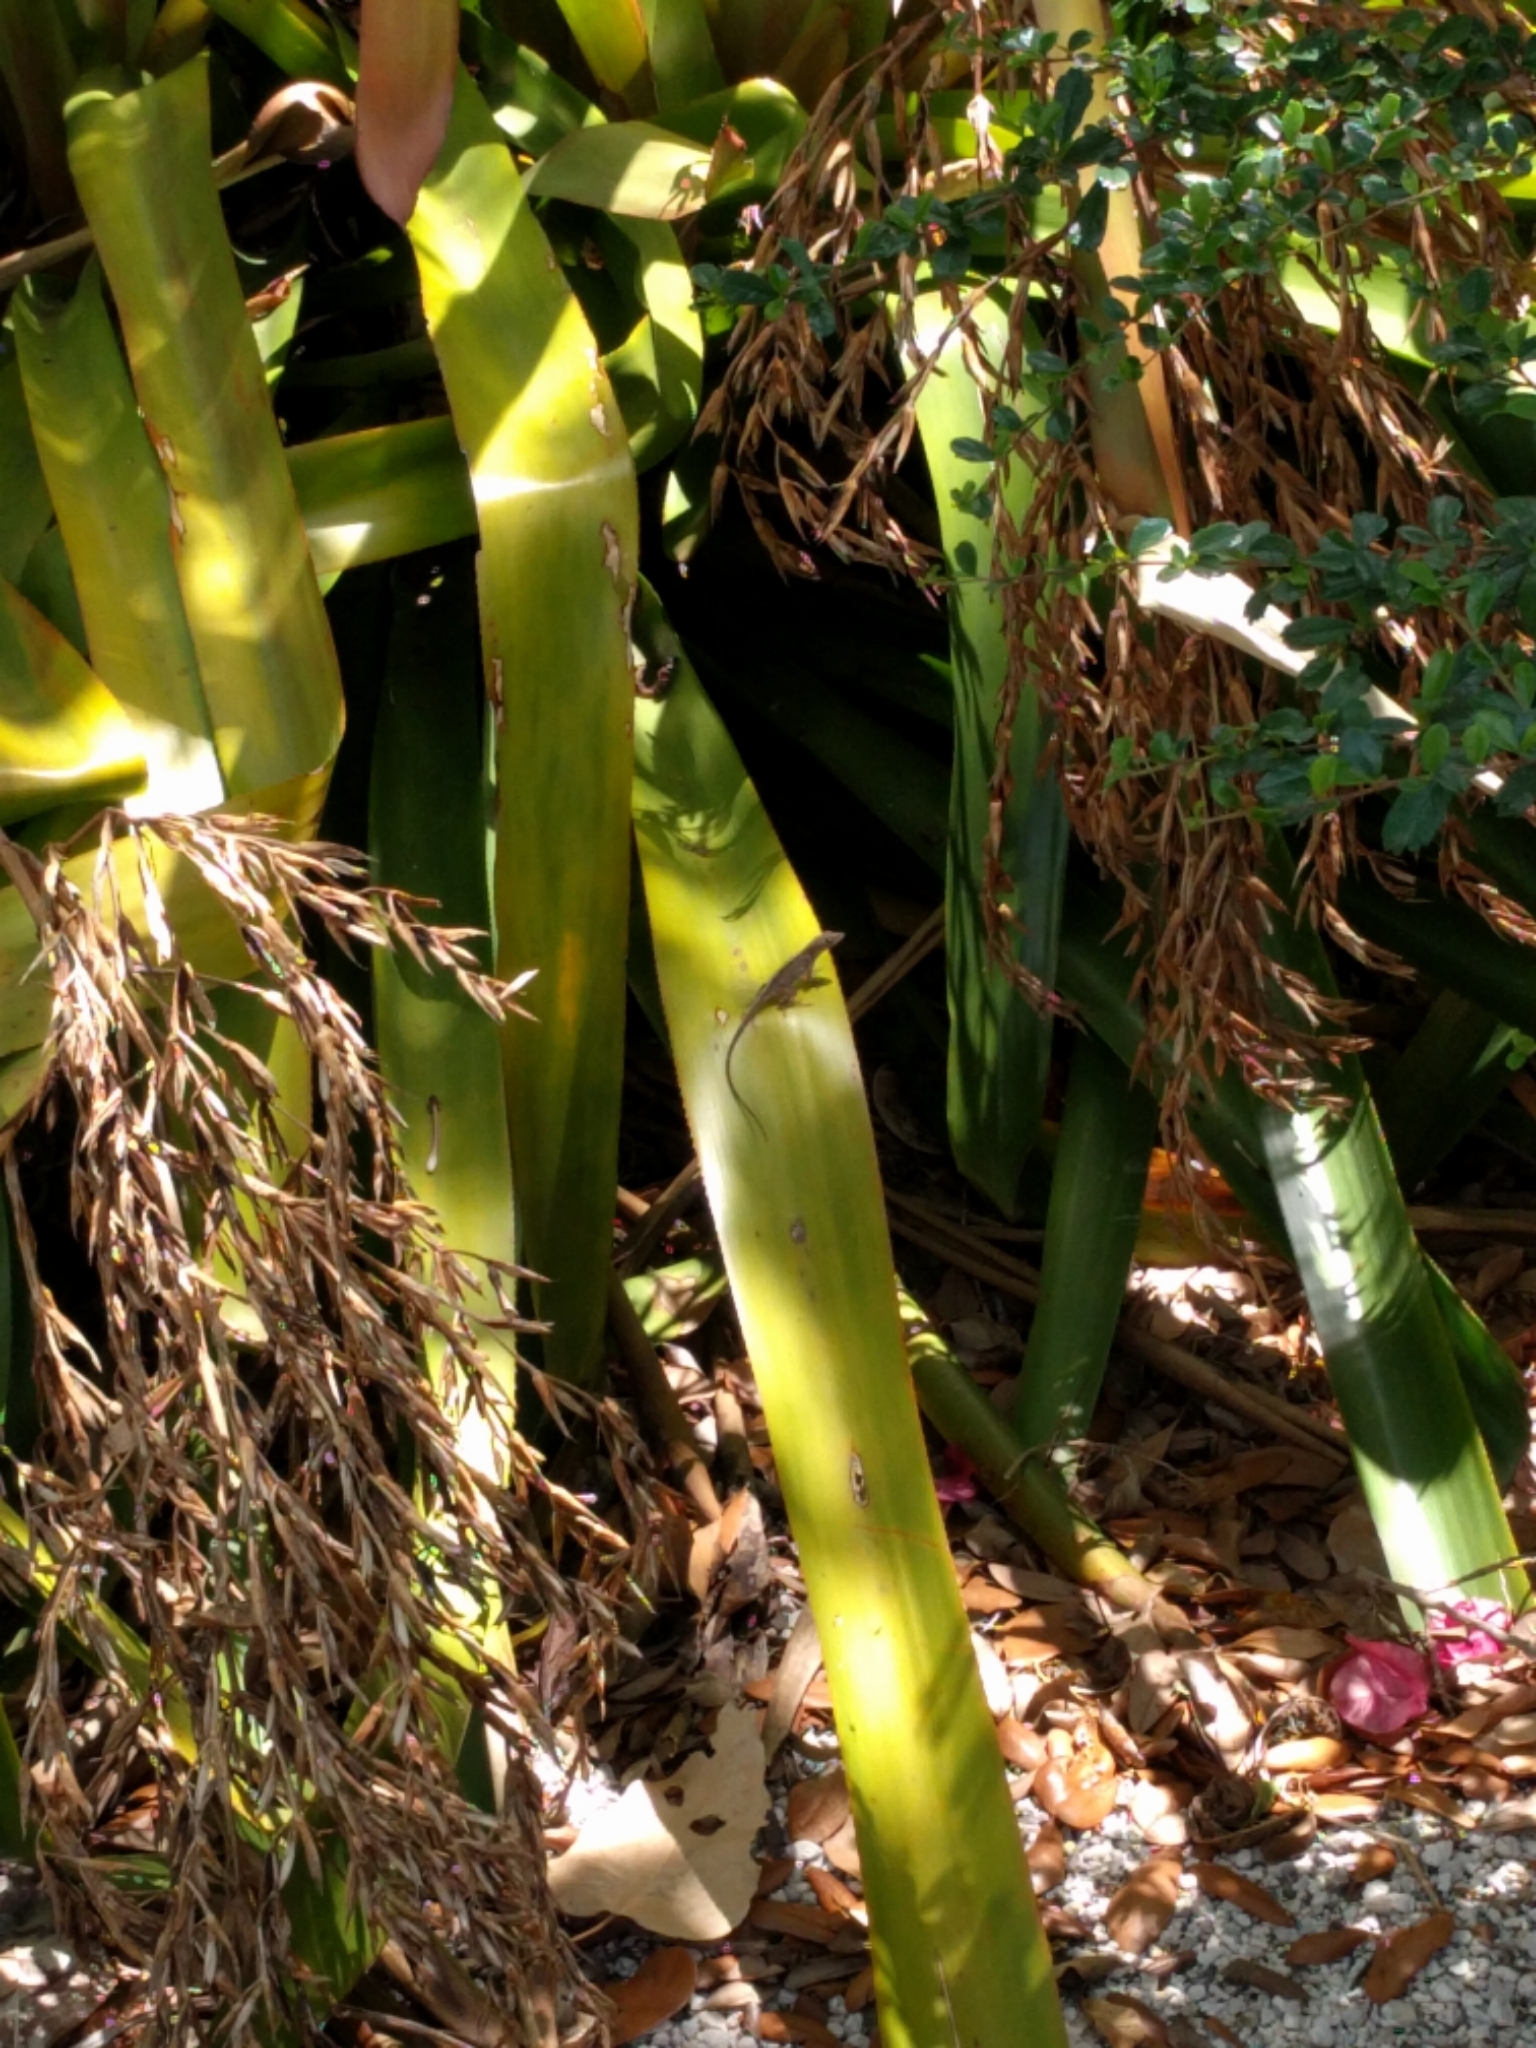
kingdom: Animalia
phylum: Chordata
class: Squamata
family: Dactyloidae
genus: Anolis
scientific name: Anolis sagrei
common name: Brown anole
